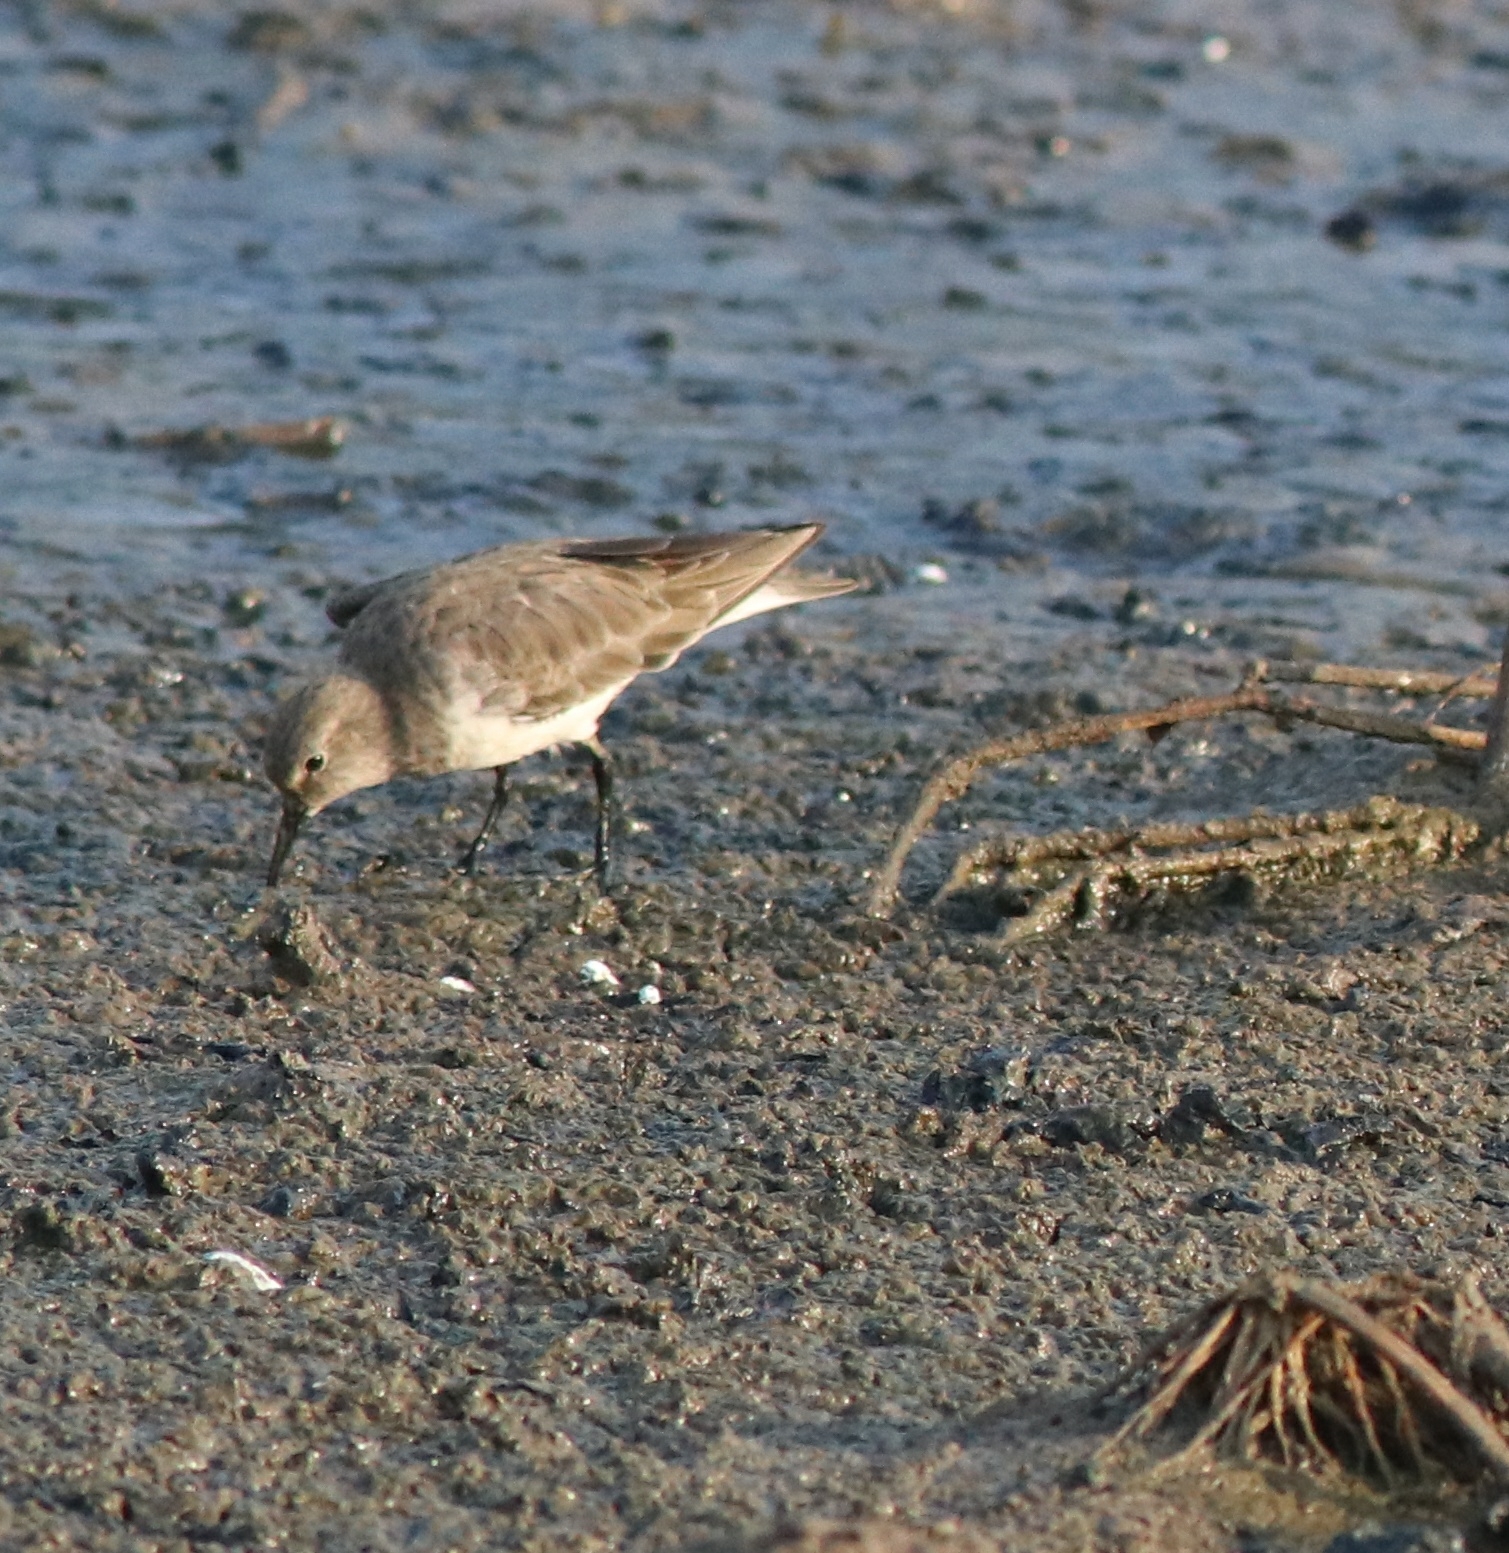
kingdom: Animalia
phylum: Chordata
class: Aves
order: Charadriiformes
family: Scolopacidae
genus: Calidris
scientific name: Calidris temminckii
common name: Temminck's stint
